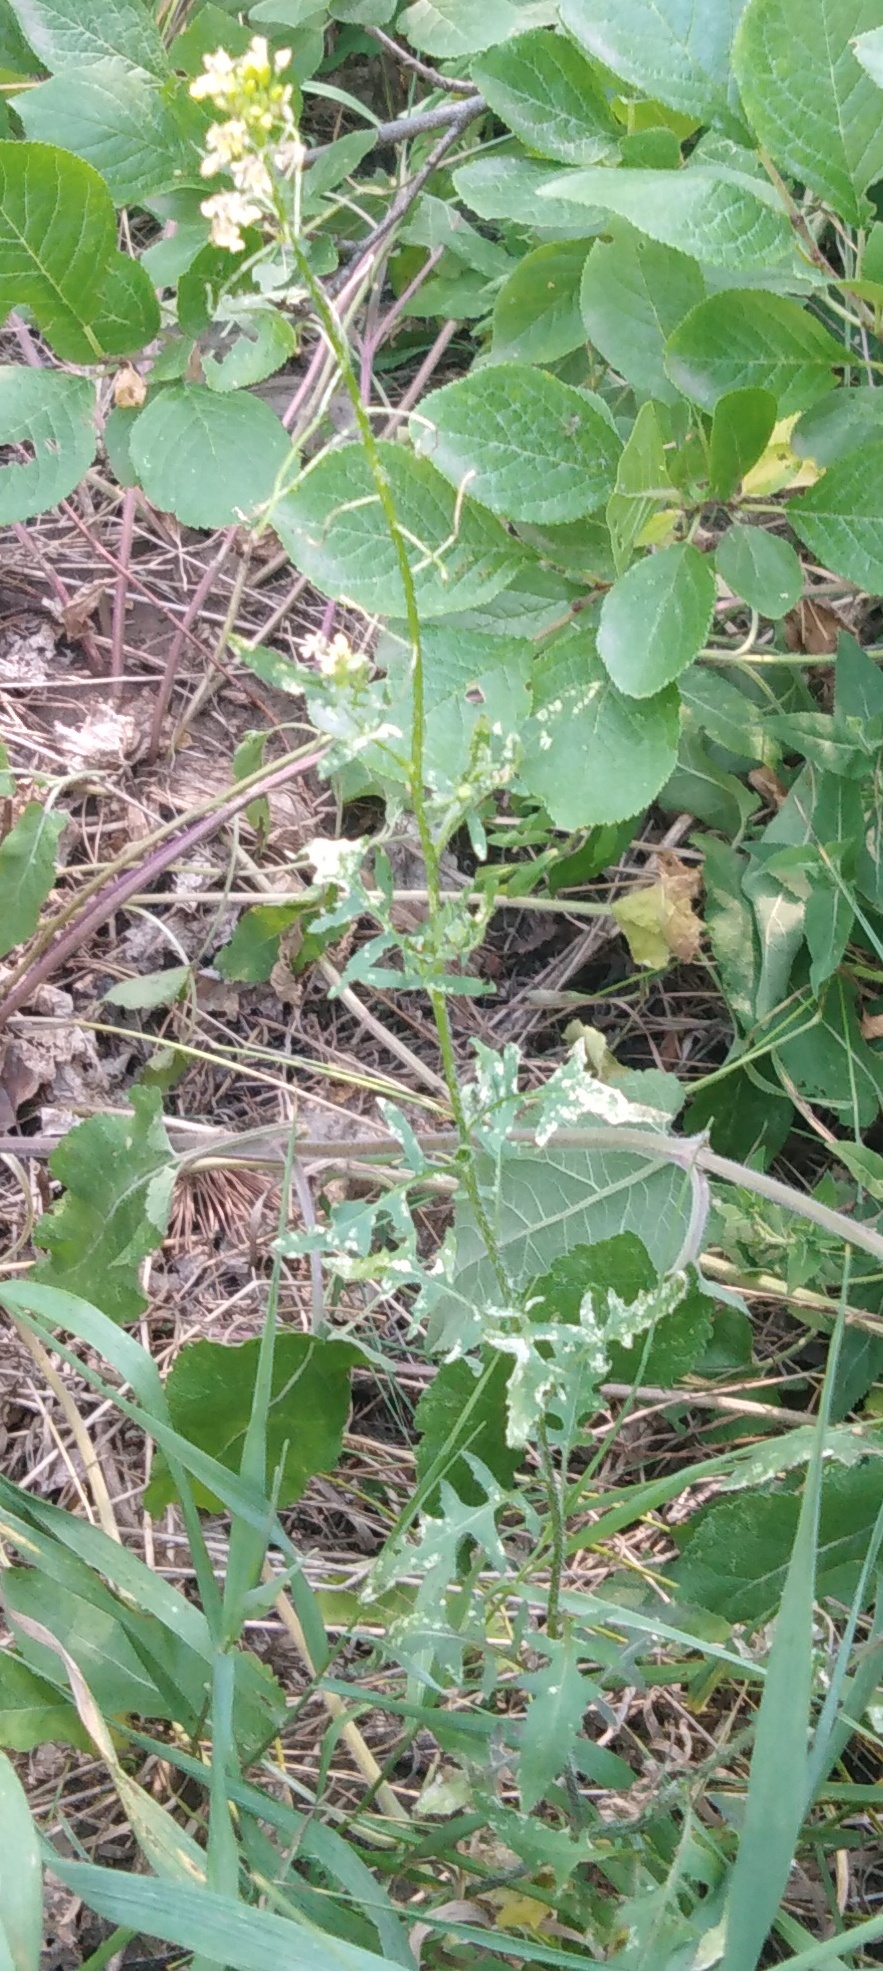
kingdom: Plantae
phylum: Tracheophyta
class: Magnoliopsida
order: Brassicales
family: Brassicaceae
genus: Sisymbrium
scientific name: Sisymbrium loeselii
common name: False london-rocket
